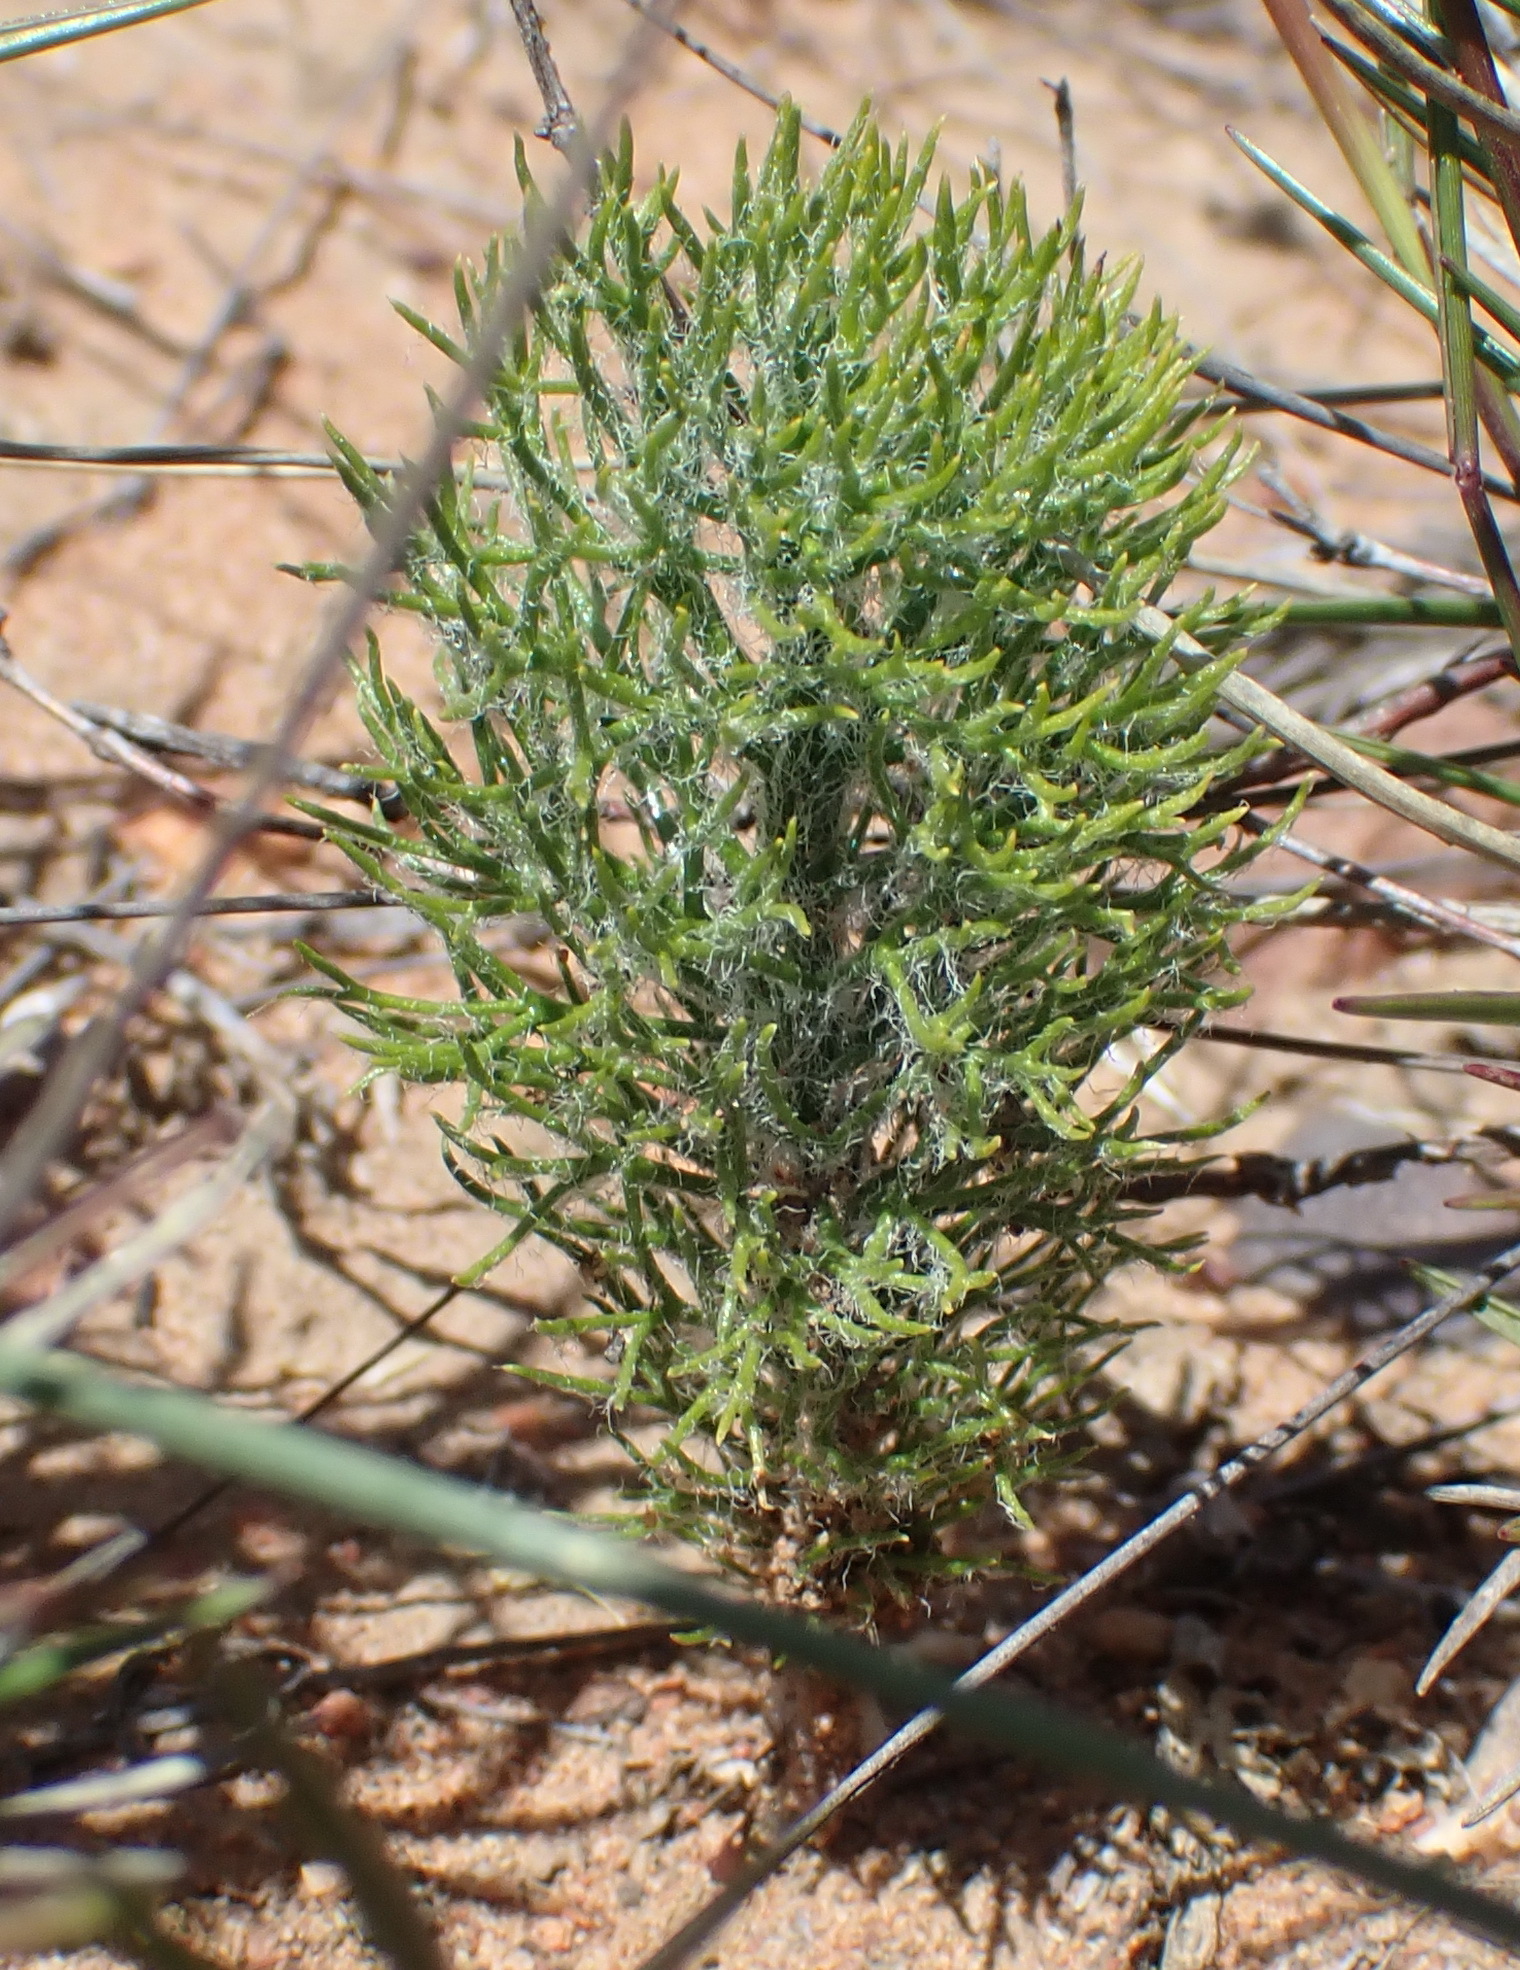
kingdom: Plantae
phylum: Tracheophyta
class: Liliopsida
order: Asparagales
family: Asparagaceae
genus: Eriospermum
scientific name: Eriospermum paradoxum
